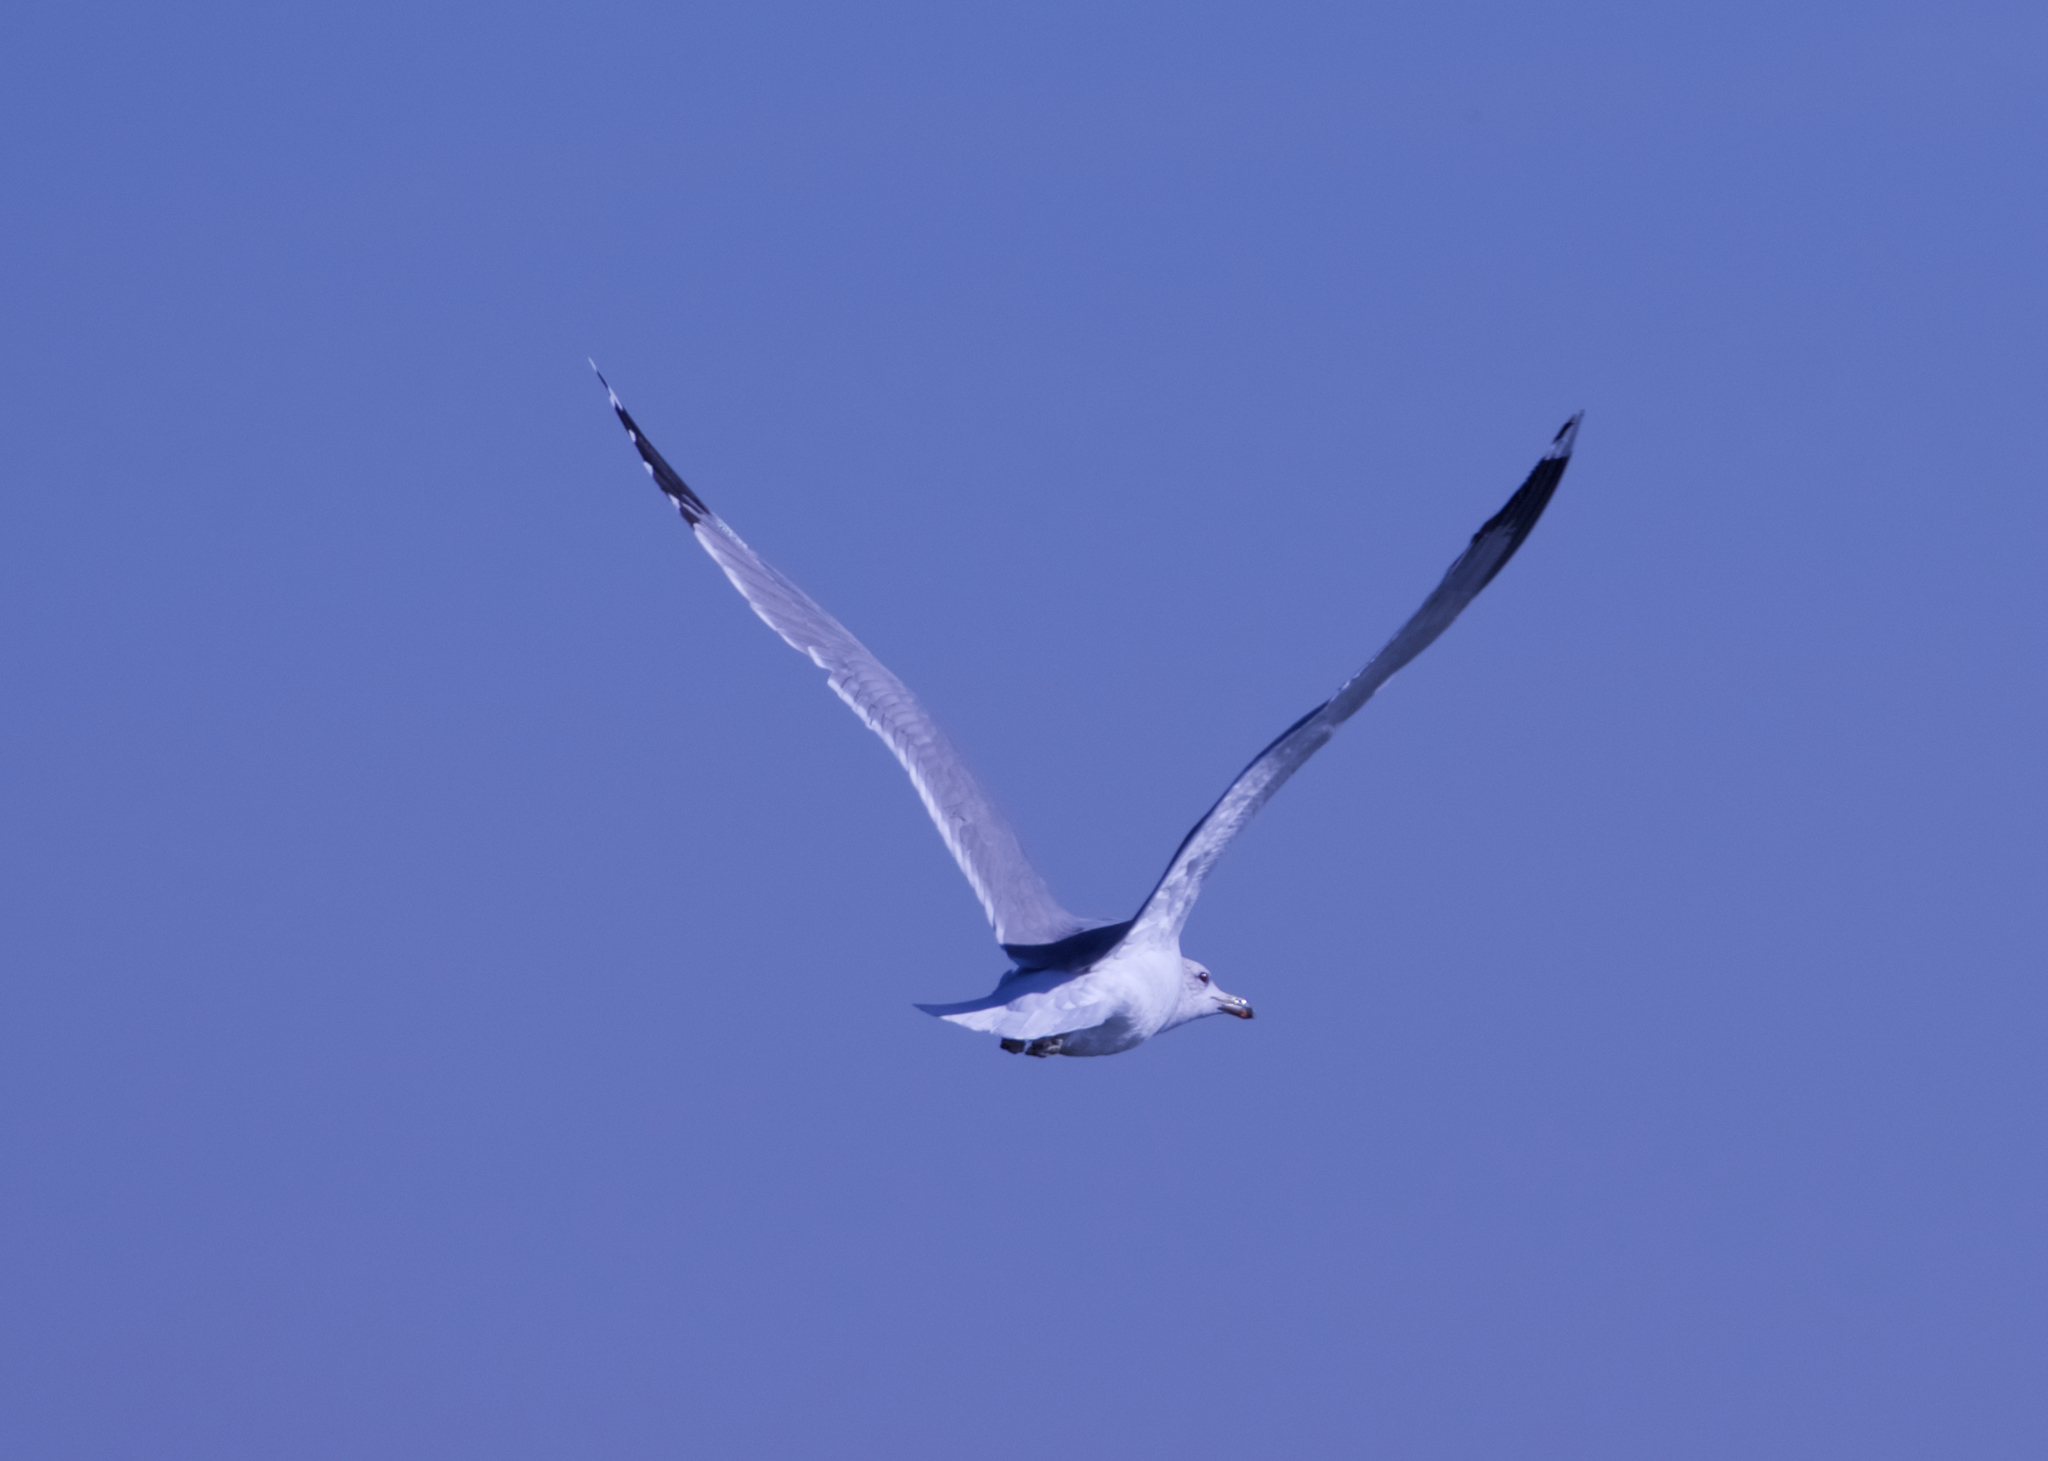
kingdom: Animalia
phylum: Chordata
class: Aves
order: Charadriiformes
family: Laridae
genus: Larus
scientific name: Larus californicus
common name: California gull
